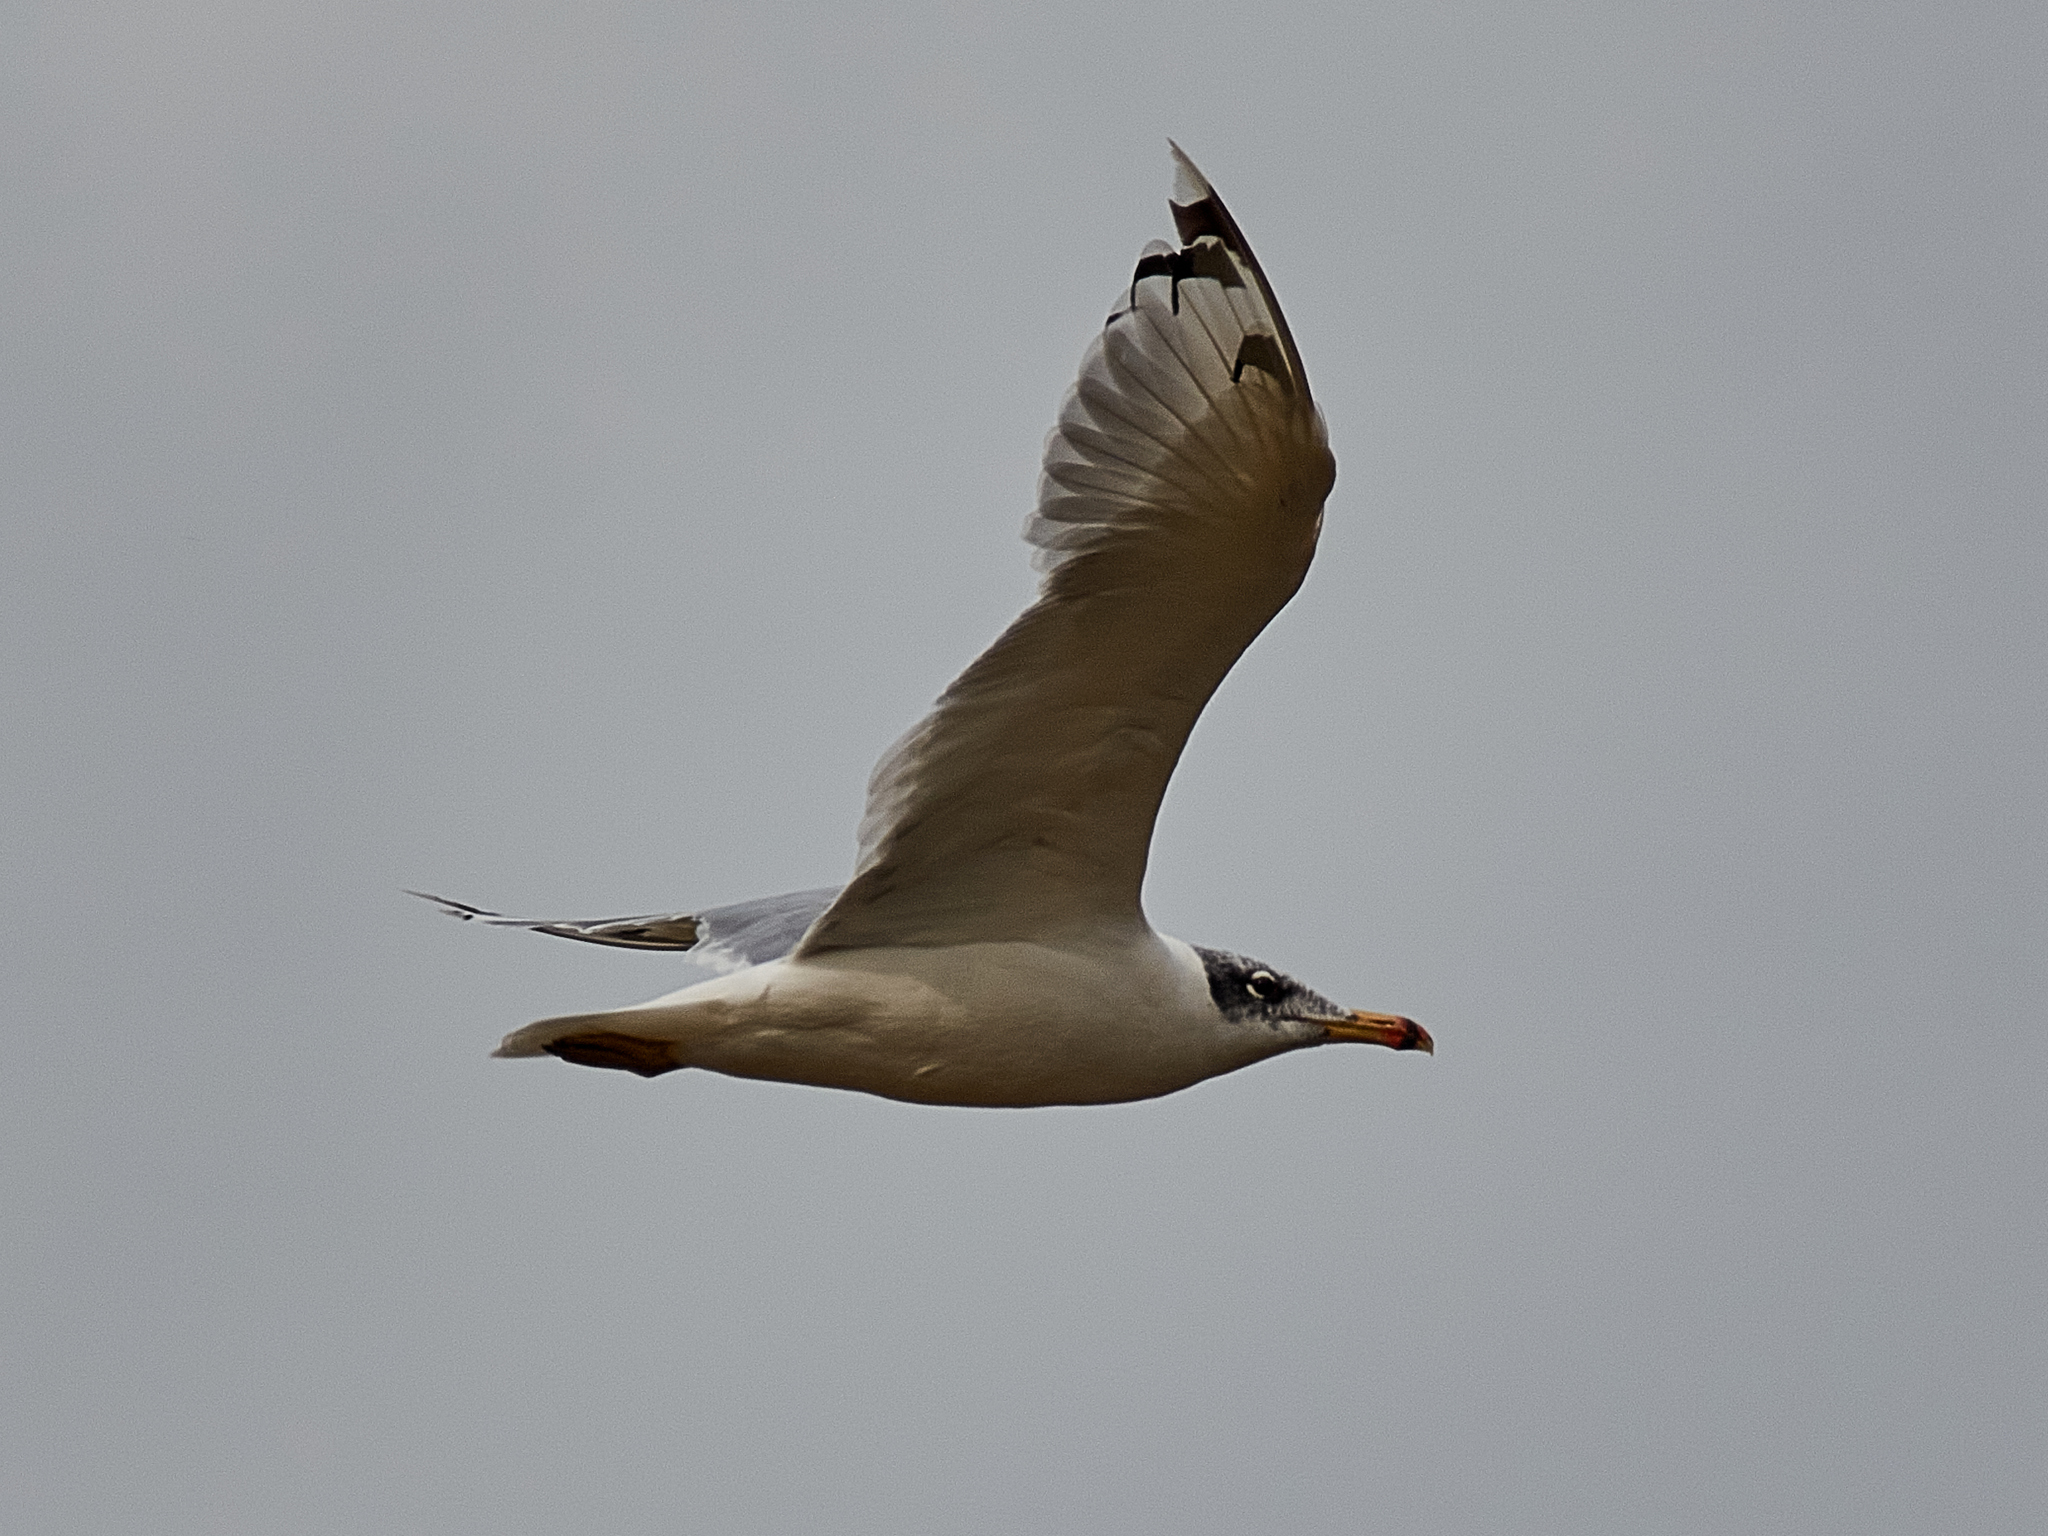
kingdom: Animalia
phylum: Chordata
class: Aves
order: Charadriiformes
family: Laridae
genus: Ichthyaetus
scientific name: Ichthyaetus ichthyaetus
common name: Pallas's gull
